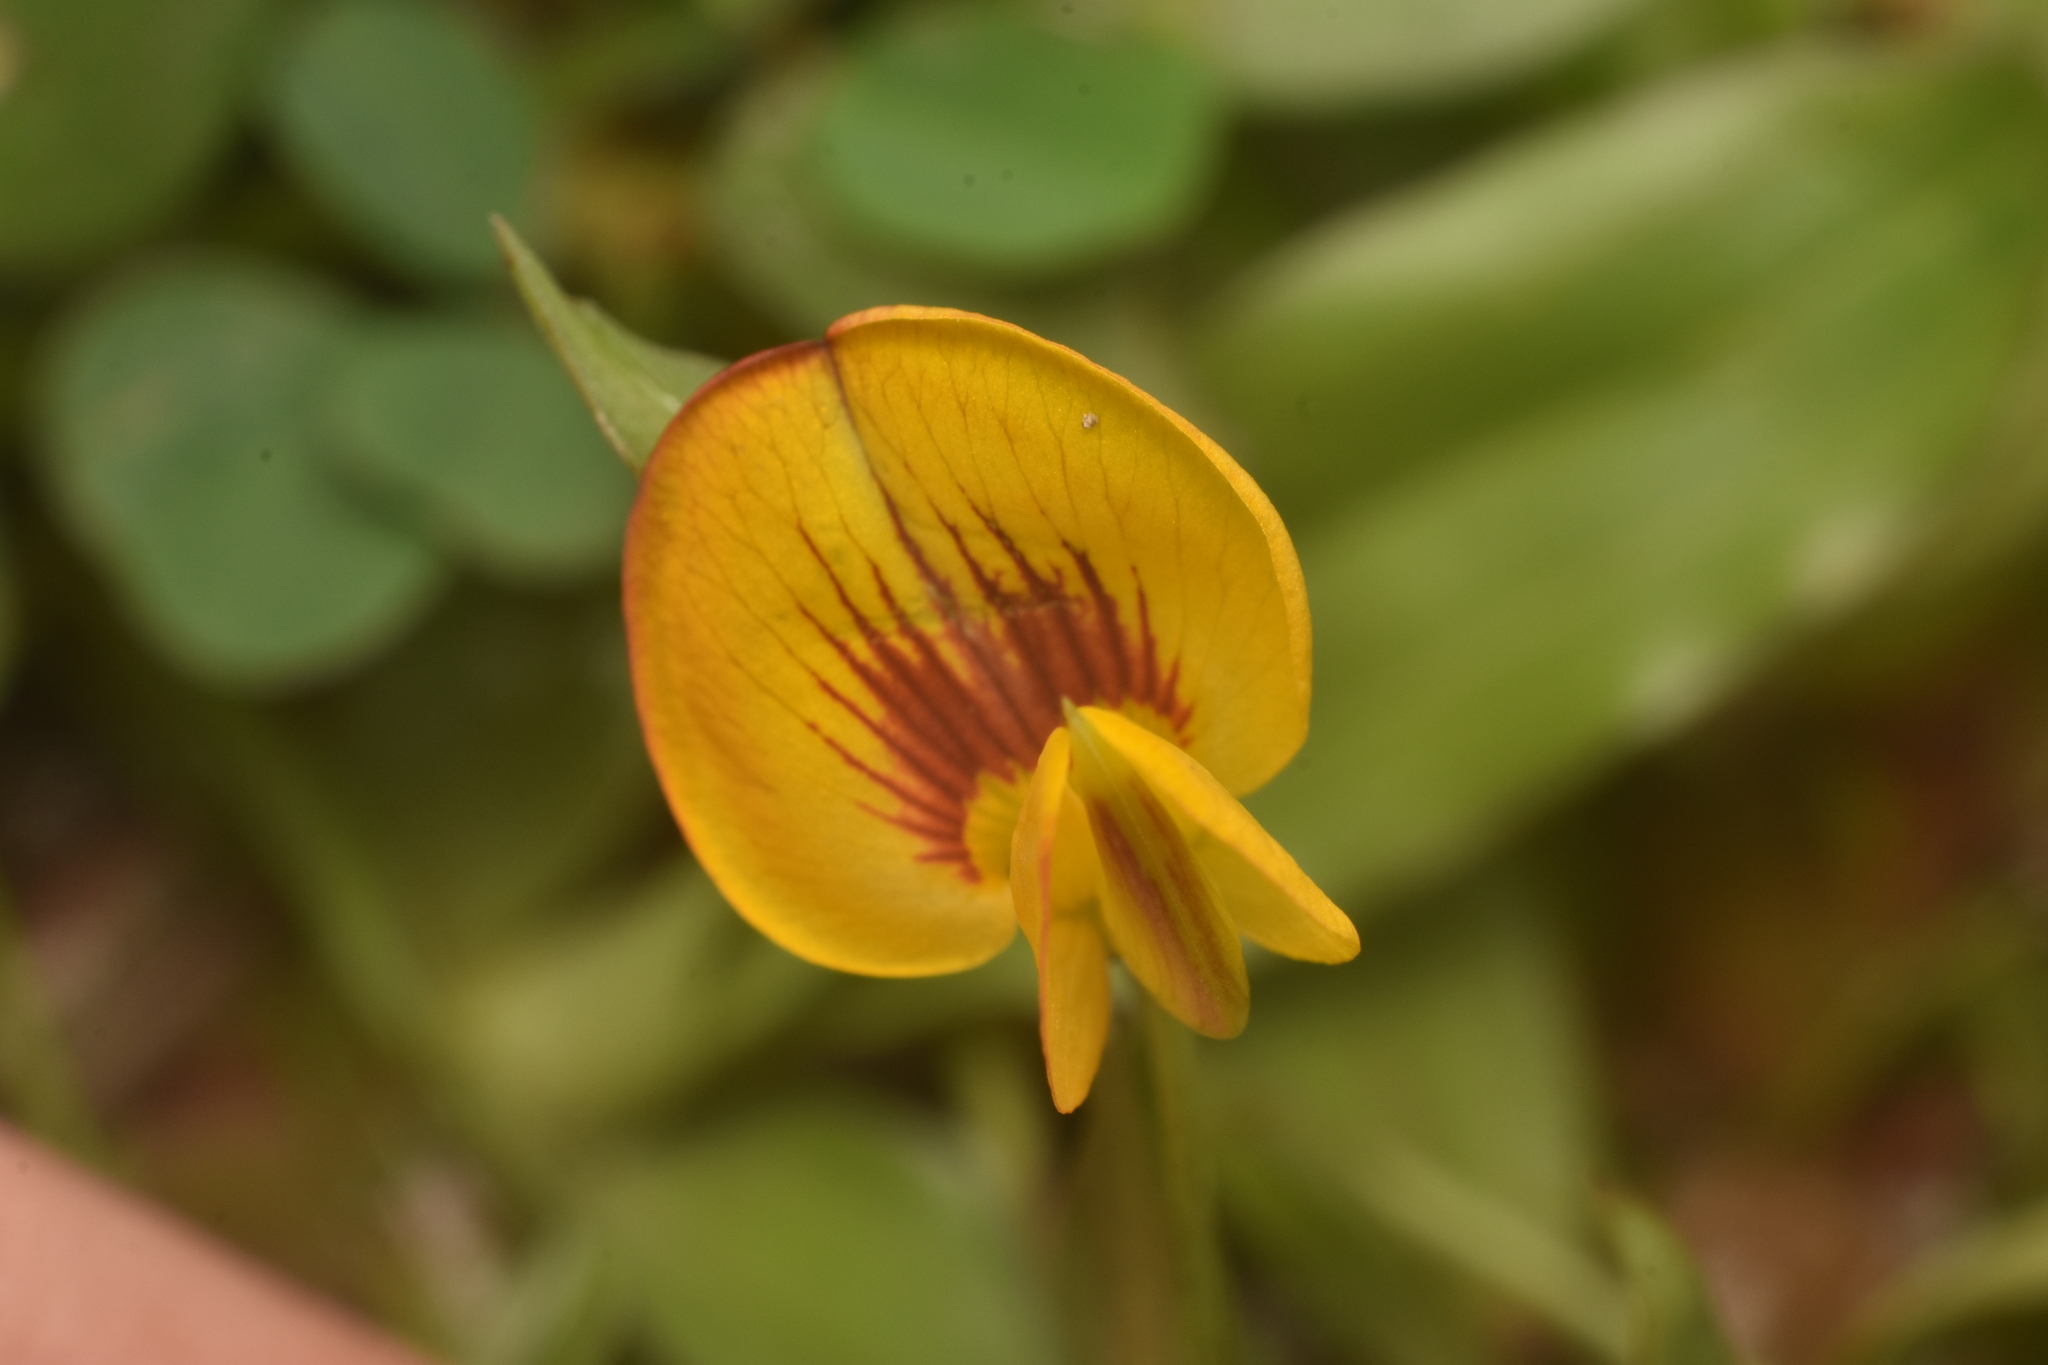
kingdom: Plantae
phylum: Tracheophyta
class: Magnoliopsida
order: Fabales
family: Fabaceae
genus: Zornia
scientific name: Zornia diphylla
